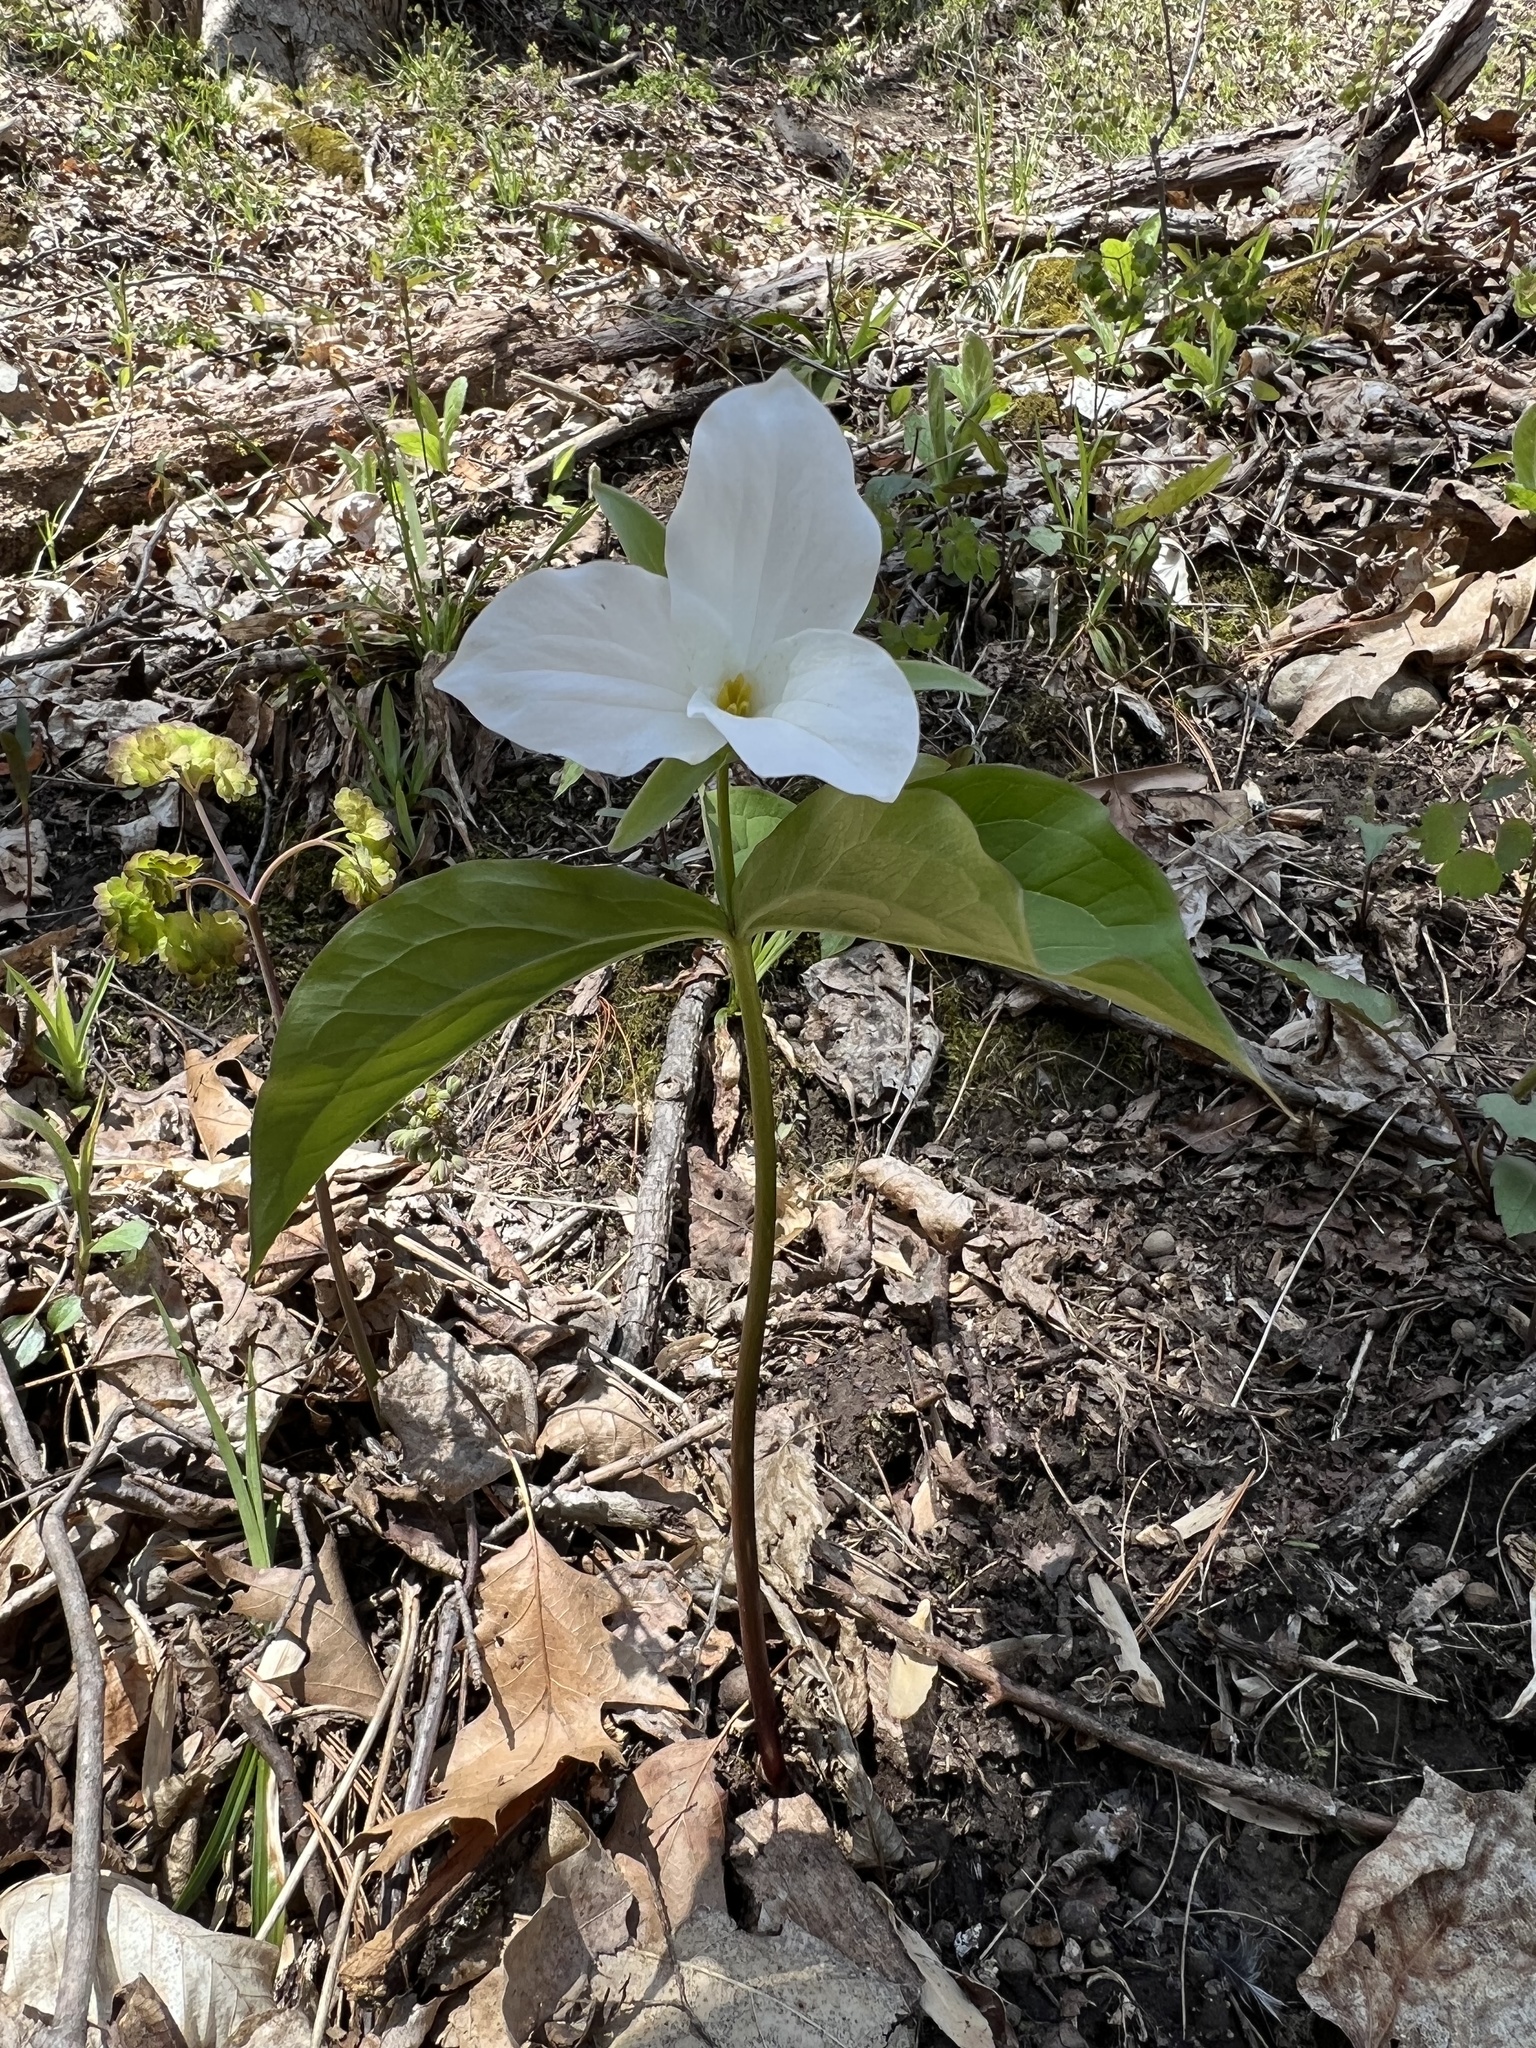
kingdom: Plantae
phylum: Tracheophyta
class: Liliopsida
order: Liliales
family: Melanthiaceae
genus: Trillium
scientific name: Trillium grandiflorum
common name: Great white trillium
